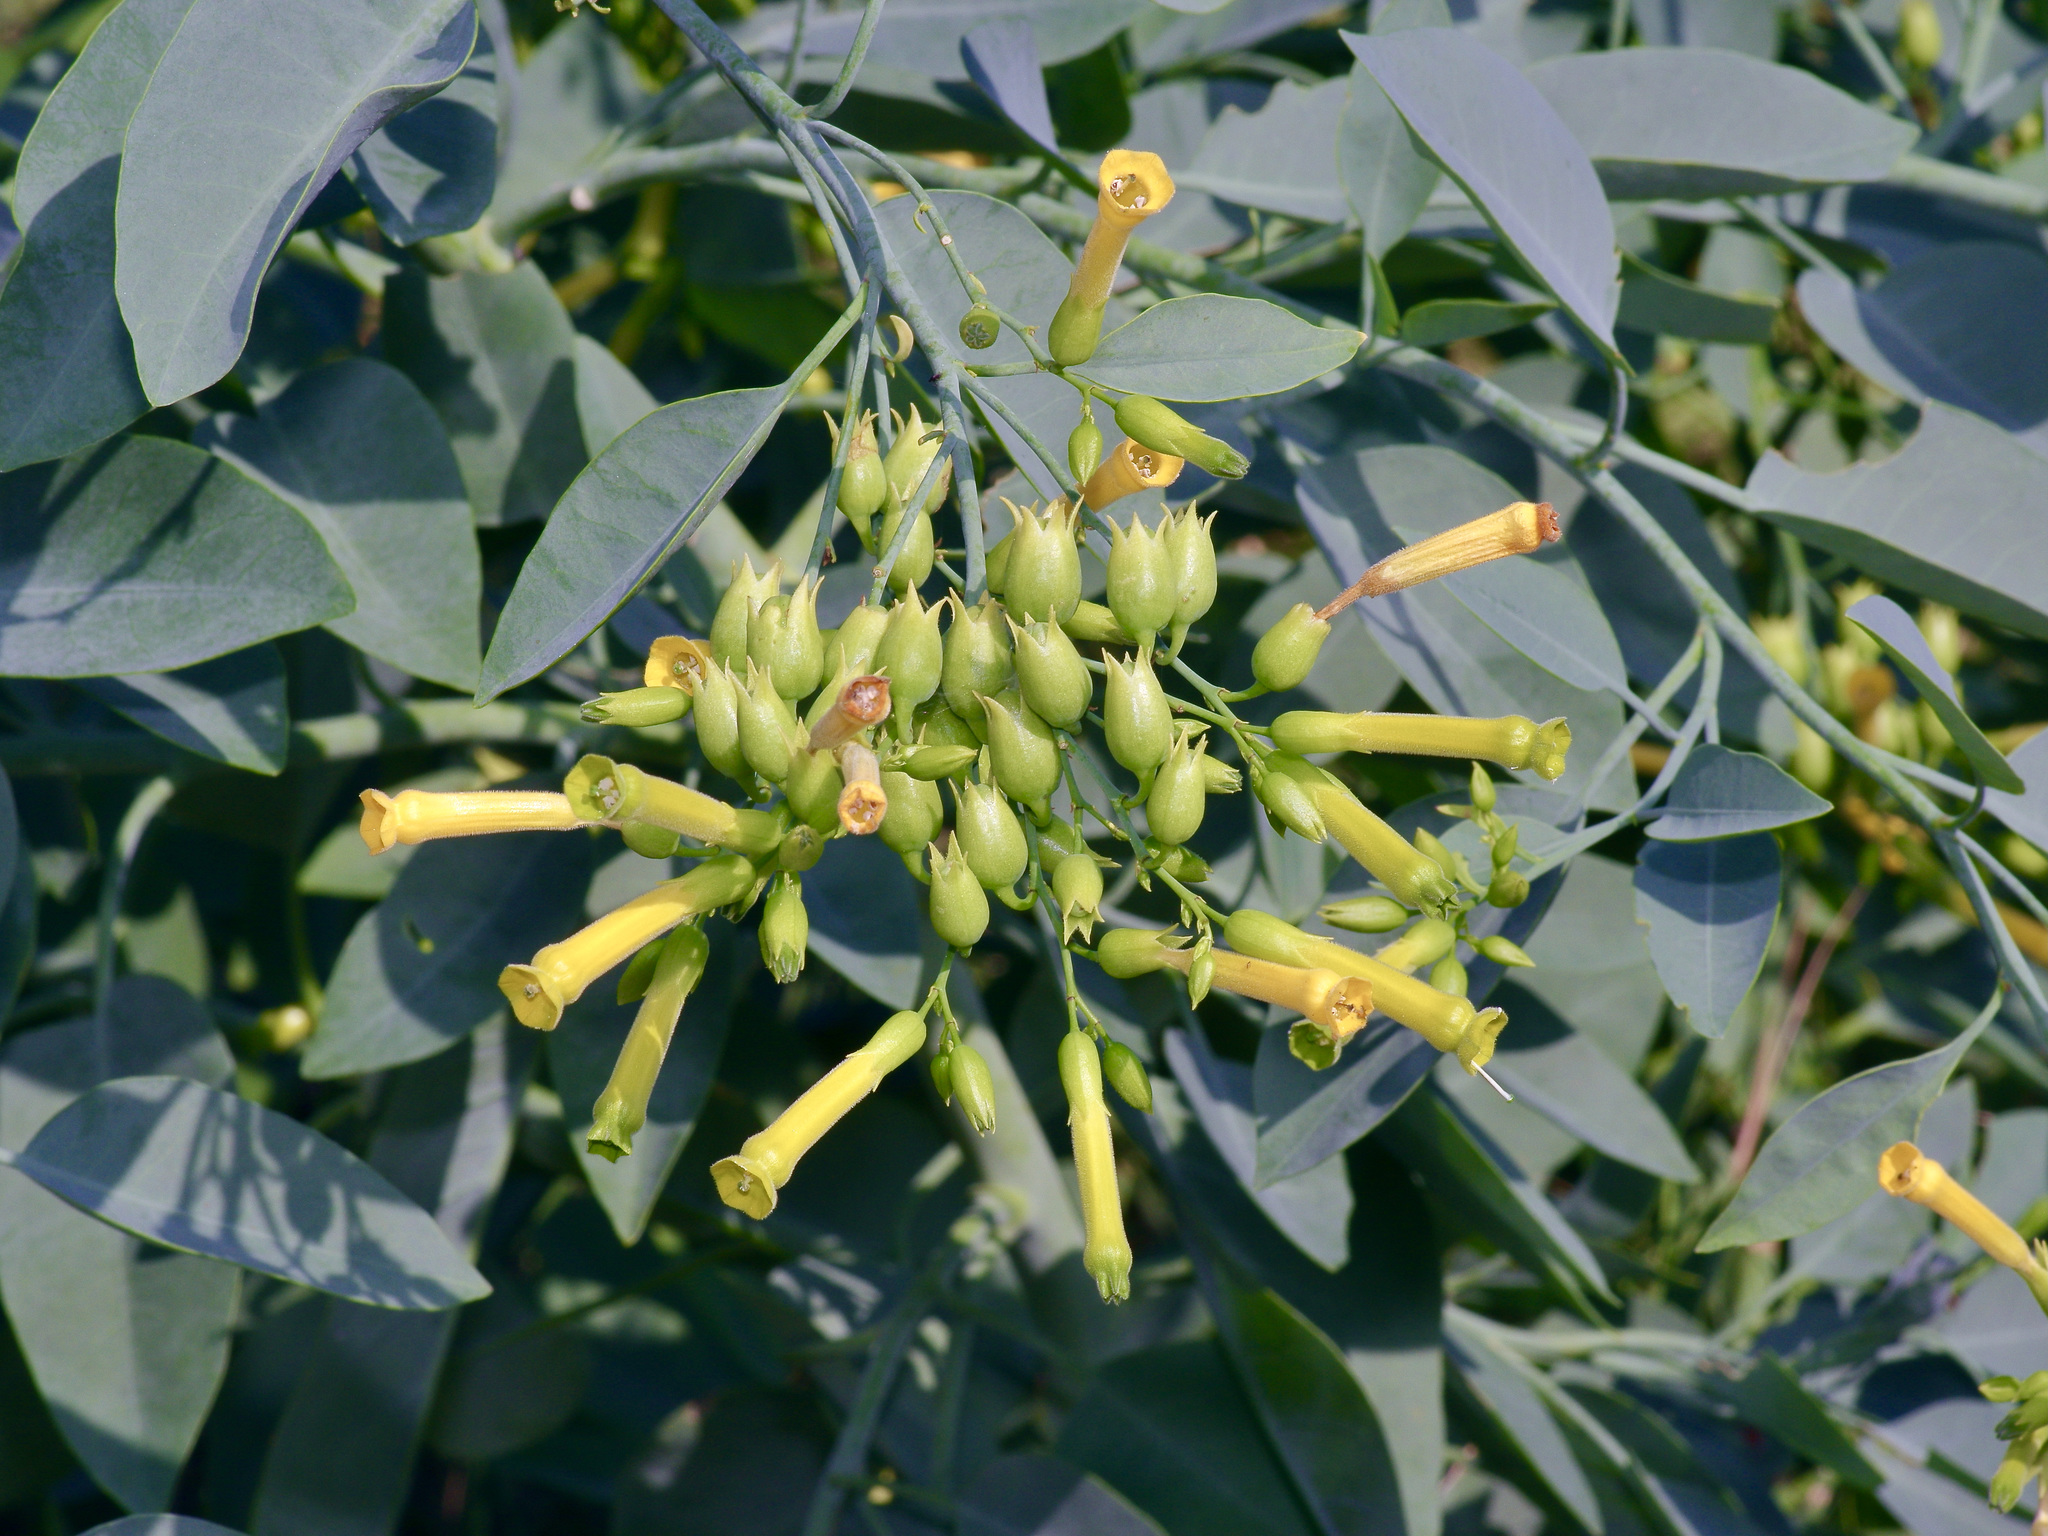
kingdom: Plantae
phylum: Tracheophyta
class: Magnoliopsida
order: Solanales
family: Solanaceae
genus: Nicotiana
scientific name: Nicotiana glauca
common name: Tree tobacco
